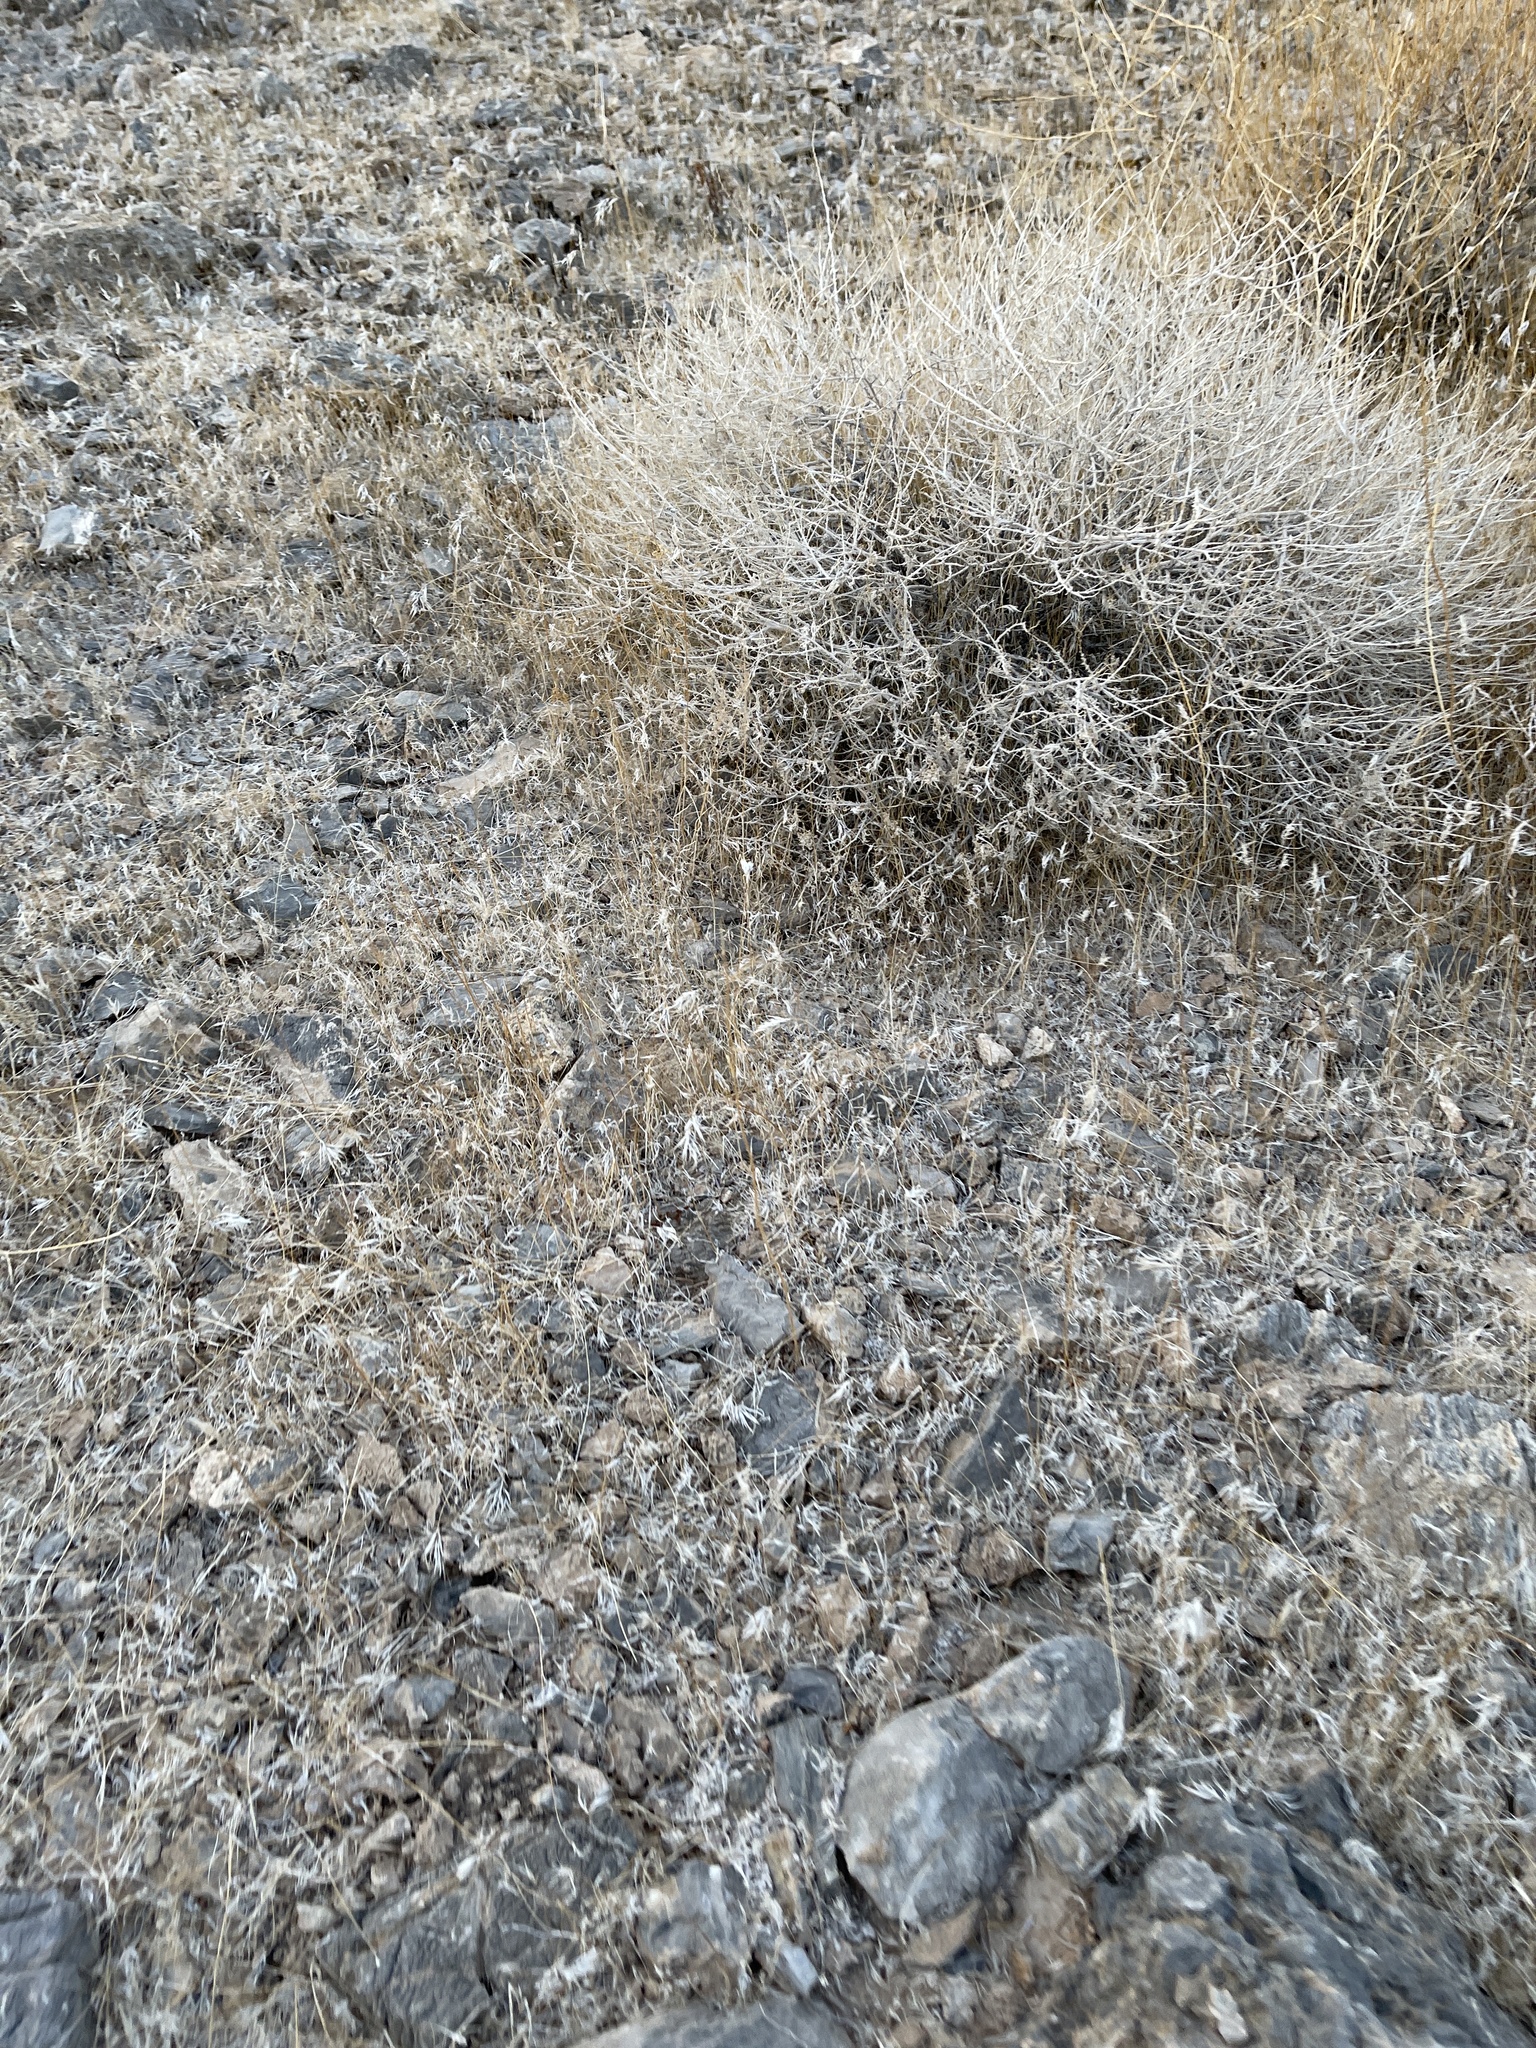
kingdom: Plantae
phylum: Tracheophyta
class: Liliopsida
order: Poales
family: Poaceae
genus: Bromus
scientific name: Bromus rubens
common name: Red brome
